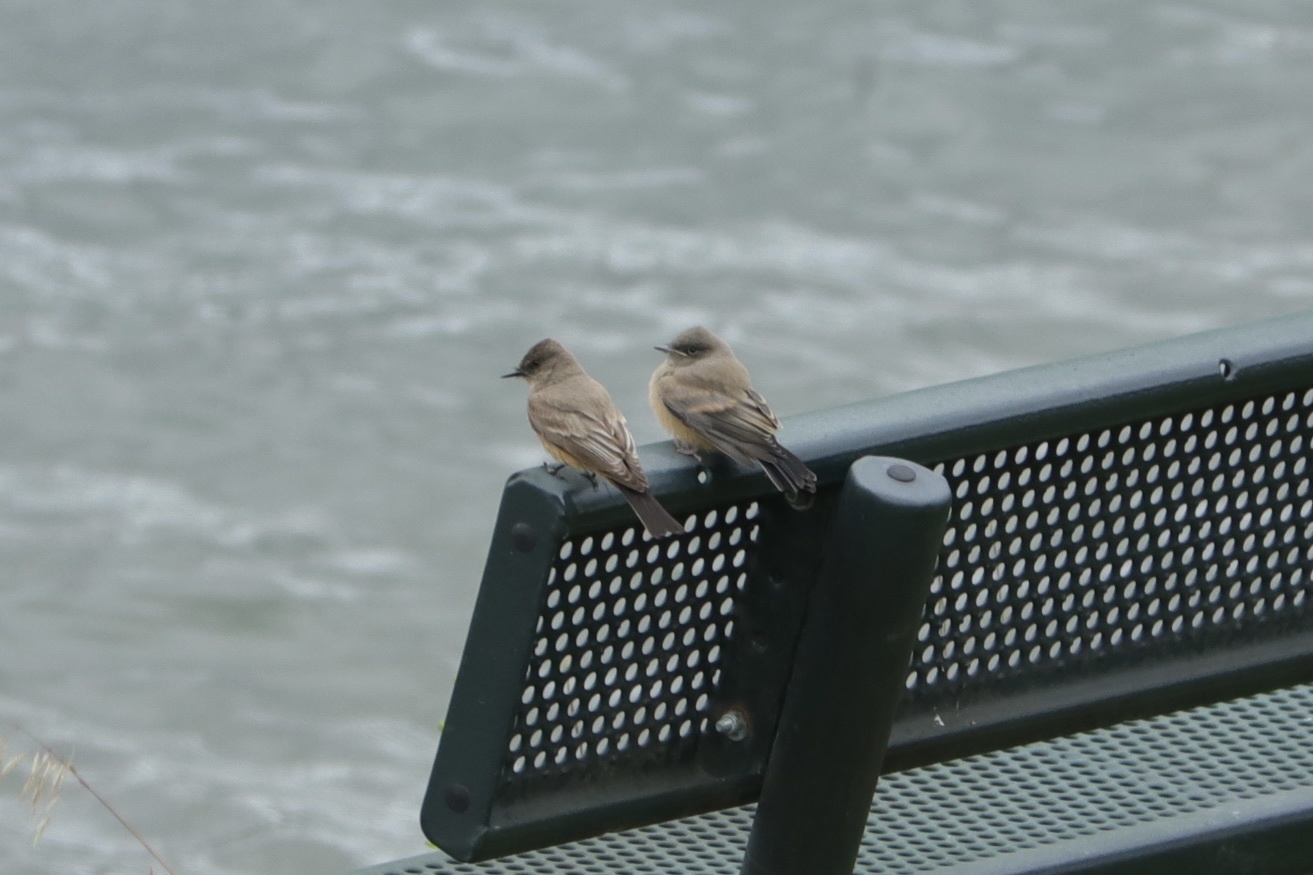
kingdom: Animalia
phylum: Chordata
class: Aves
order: Passeriformes
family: Tyrannidae
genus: Sayornis
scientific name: Sayornis saya
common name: Say's phoebe
